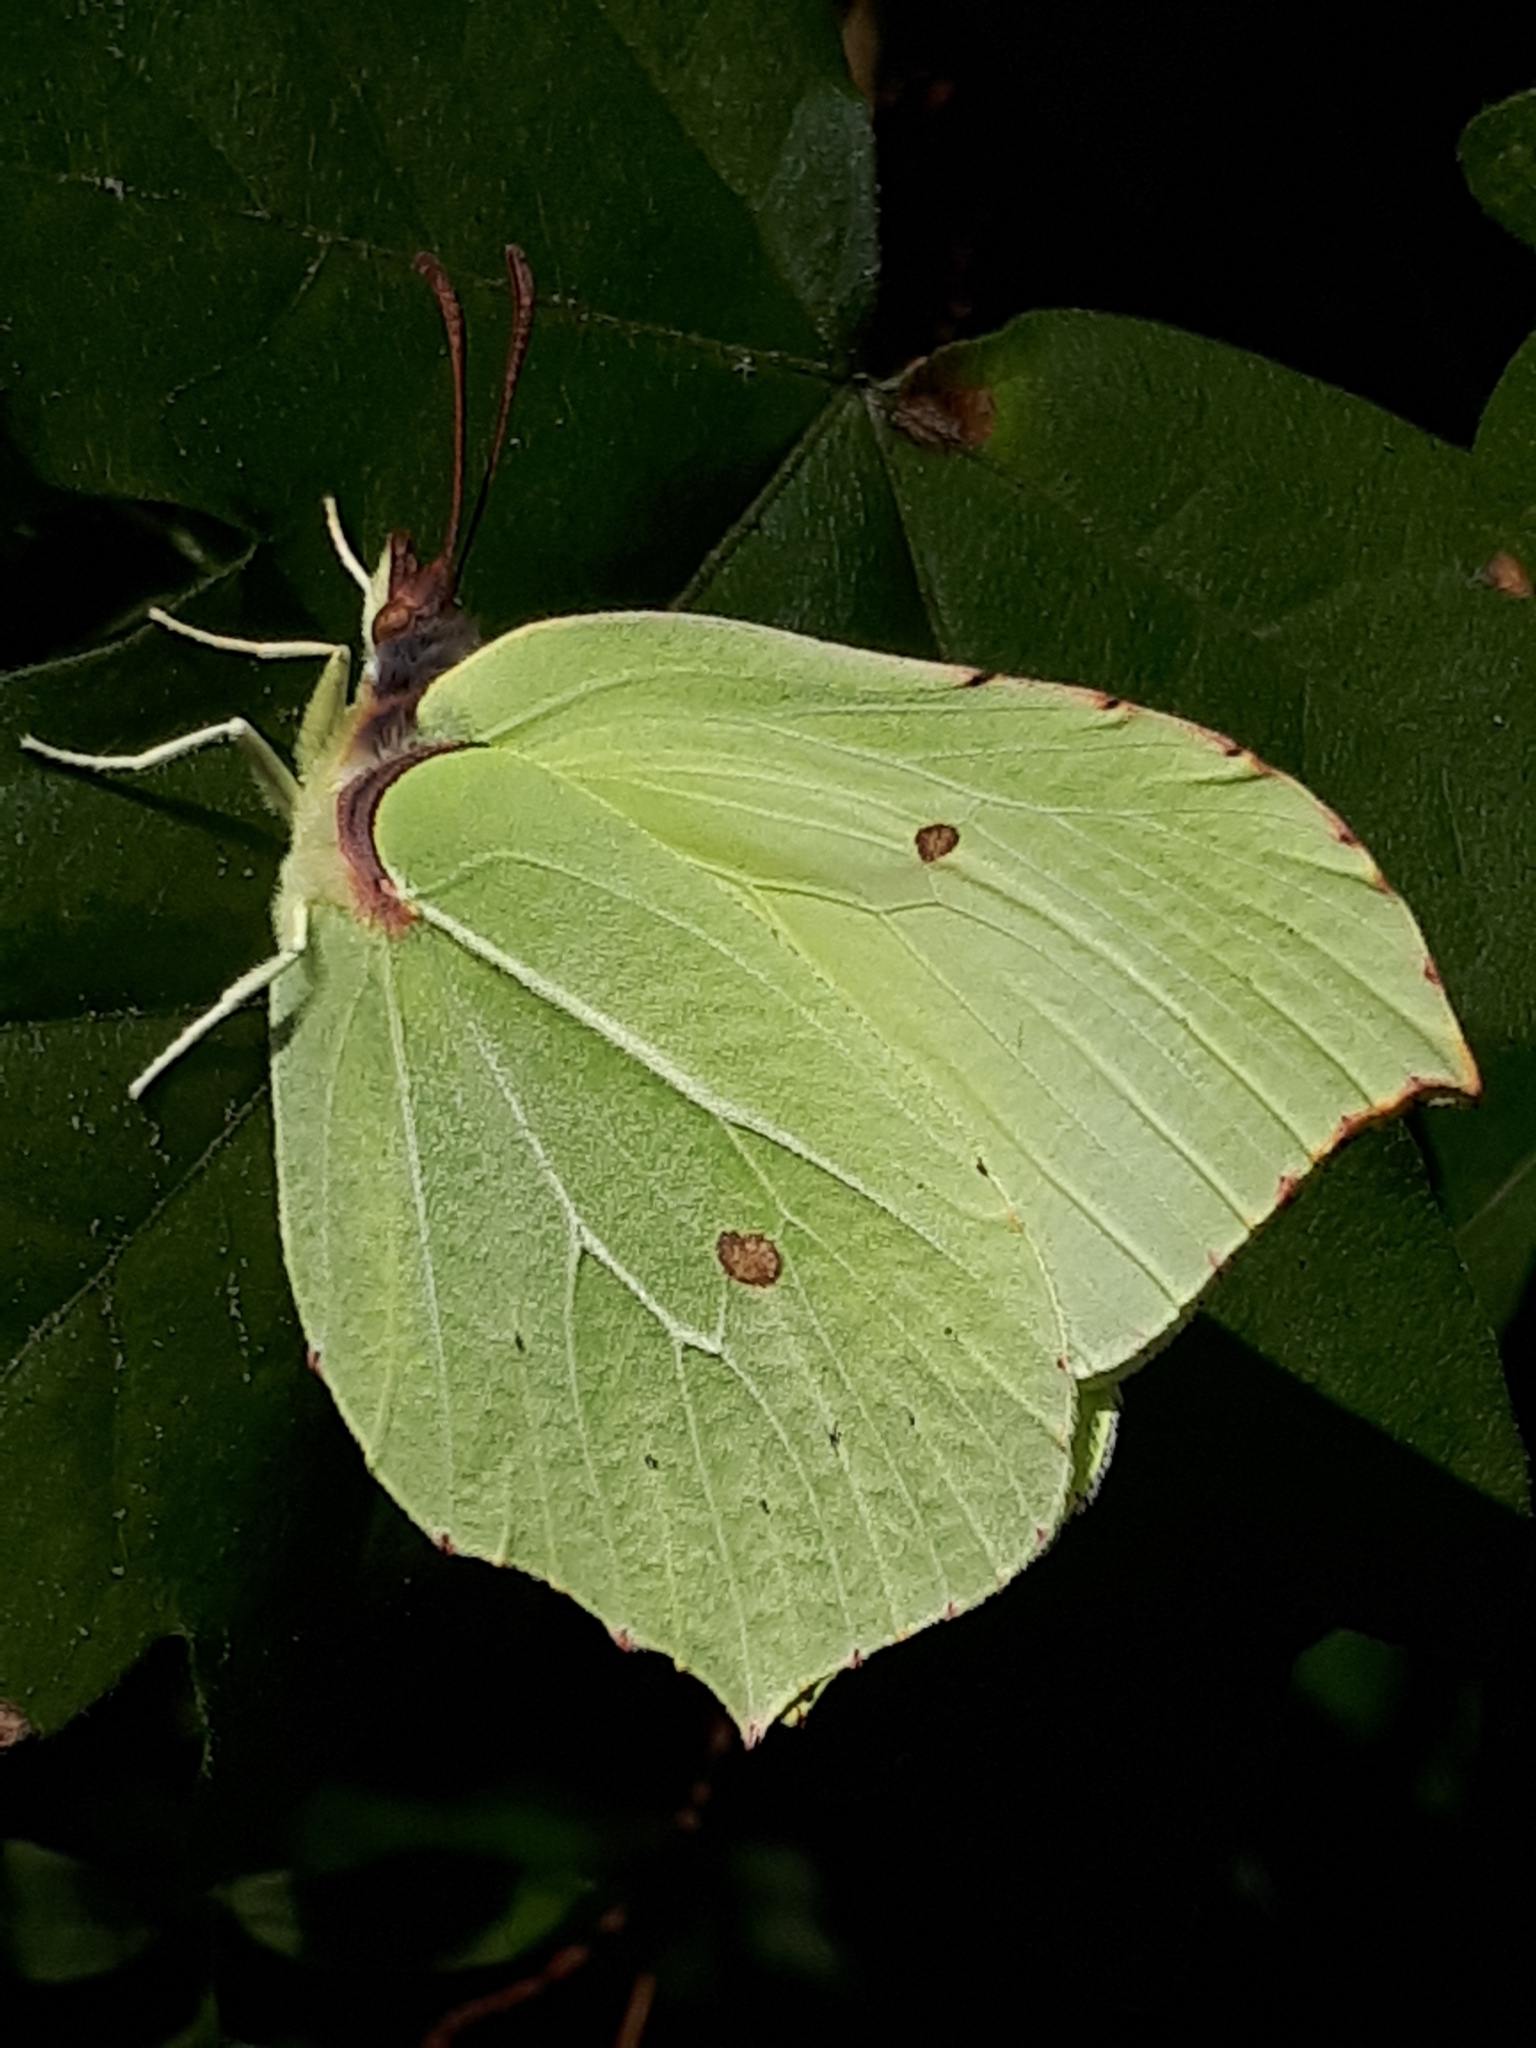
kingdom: Animalia
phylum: Arthropoda
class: Insecta
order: Lepidoptera
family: Pieridae
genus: Gonepteryx
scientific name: Gonepteryx rhamni
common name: Brimstone
